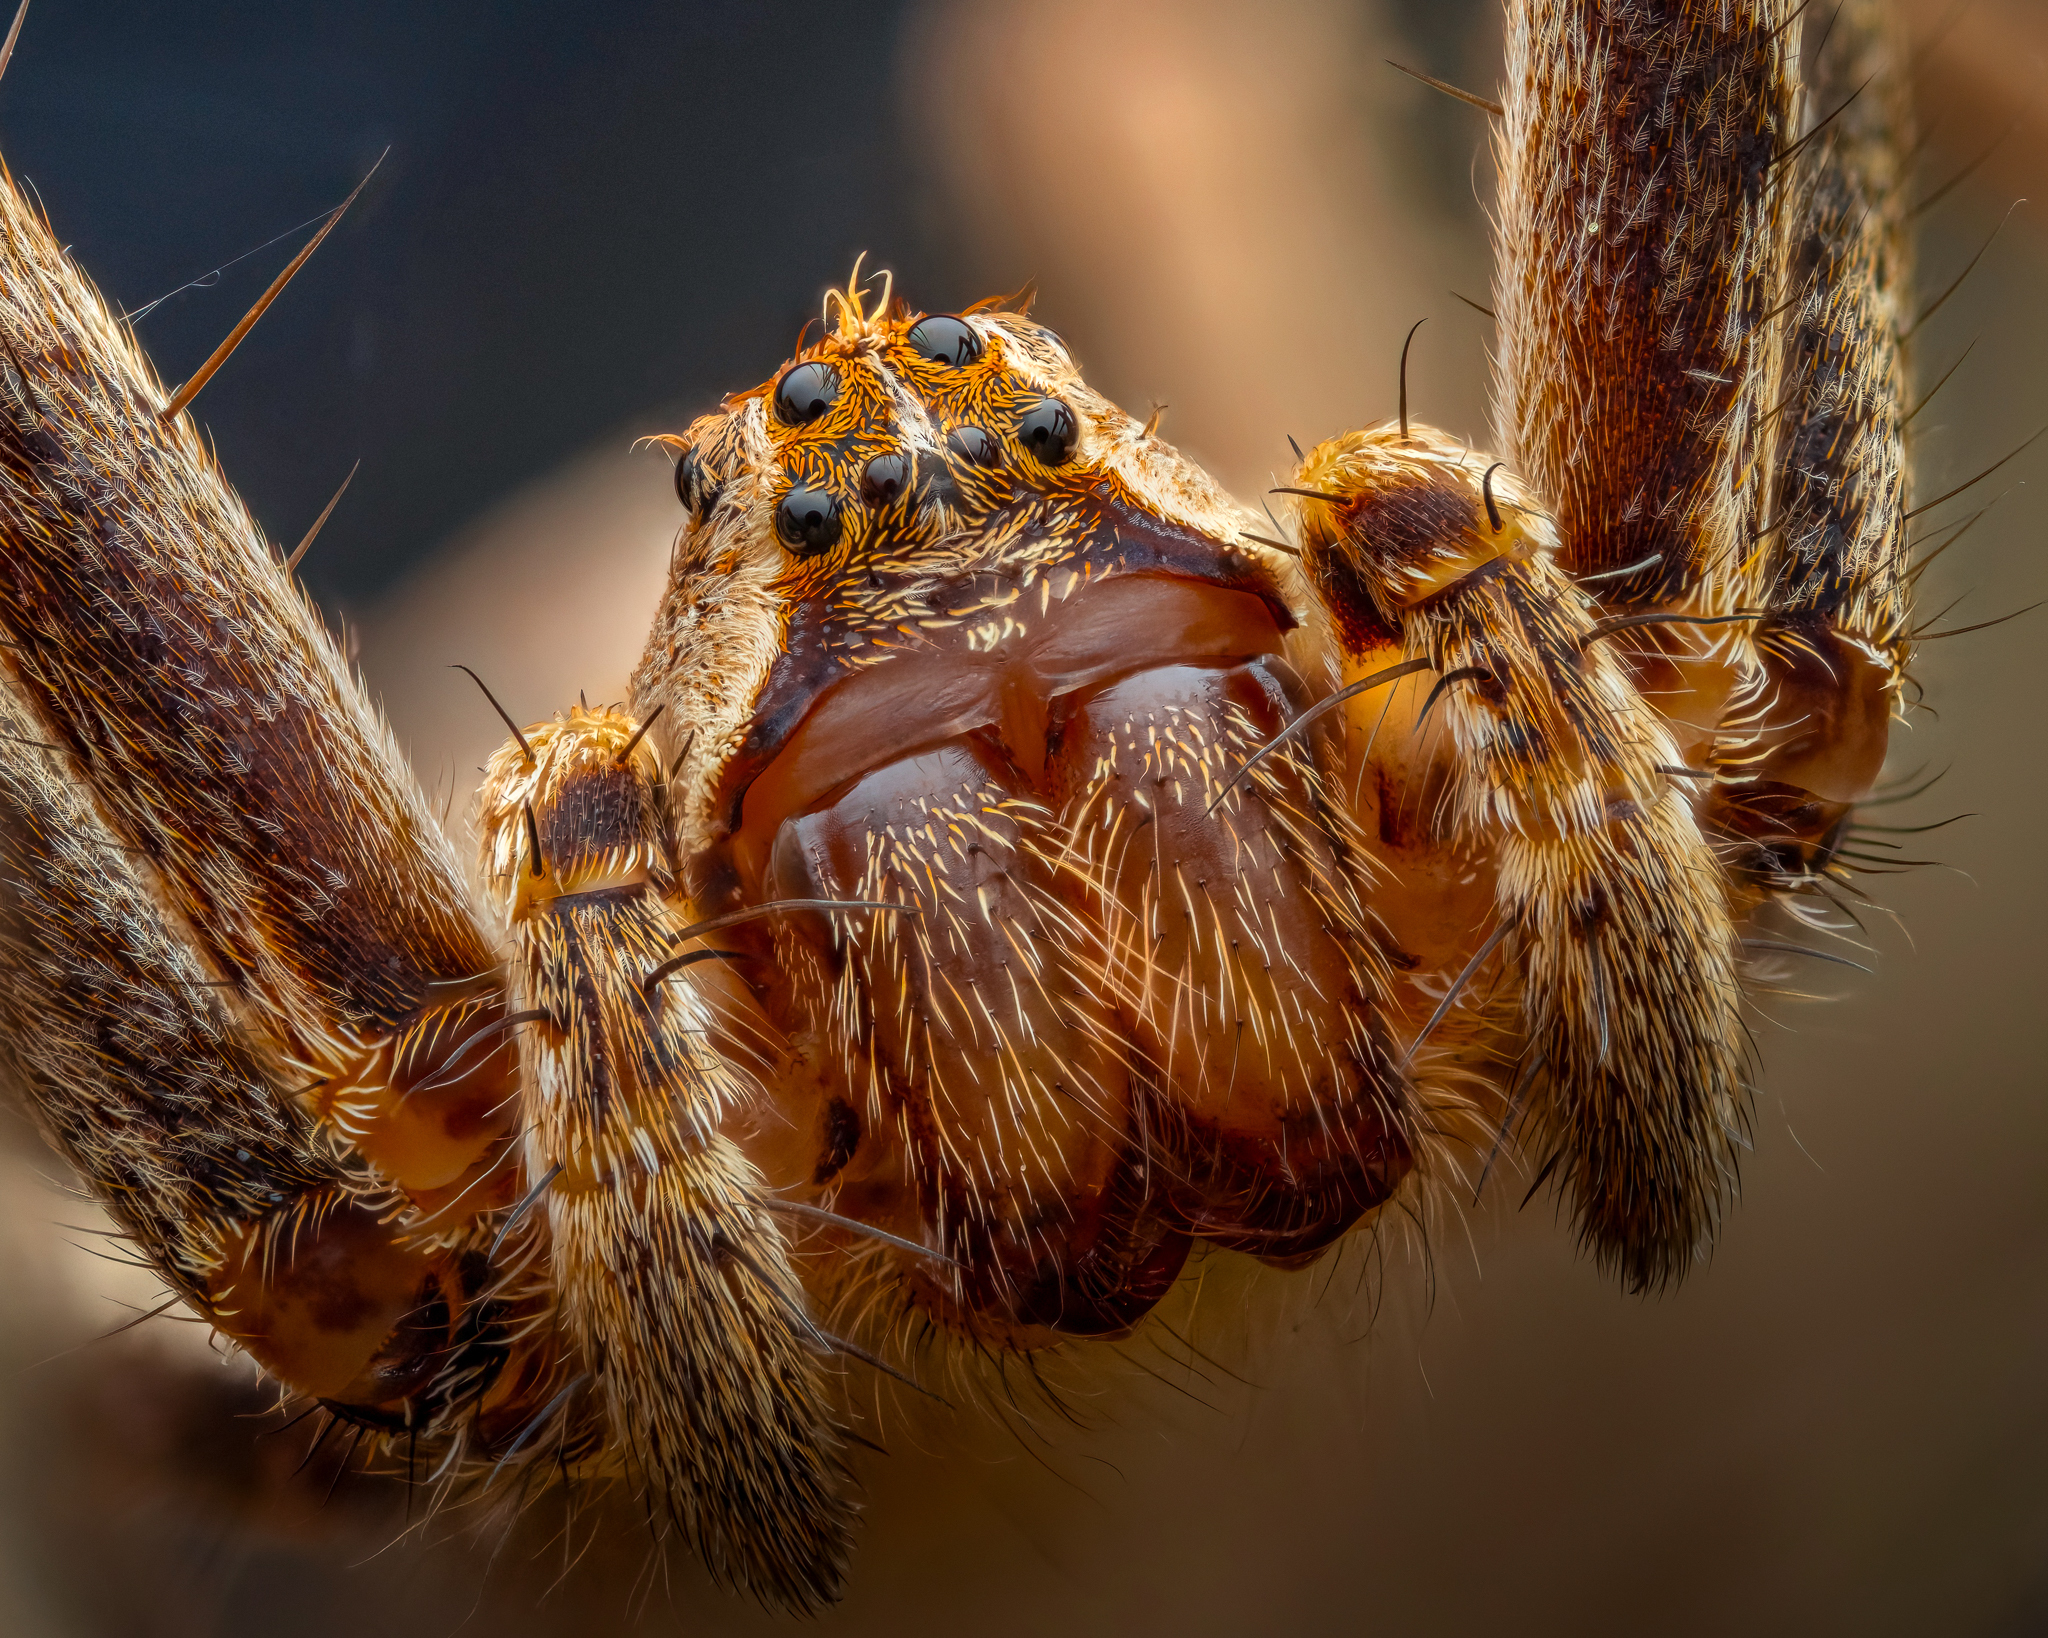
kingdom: Animalia
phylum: Arthropoda
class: Arachnida
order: Araneae
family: Pisauridae
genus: Pisaura
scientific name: Pisaura mirabilis
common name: Tent spider
